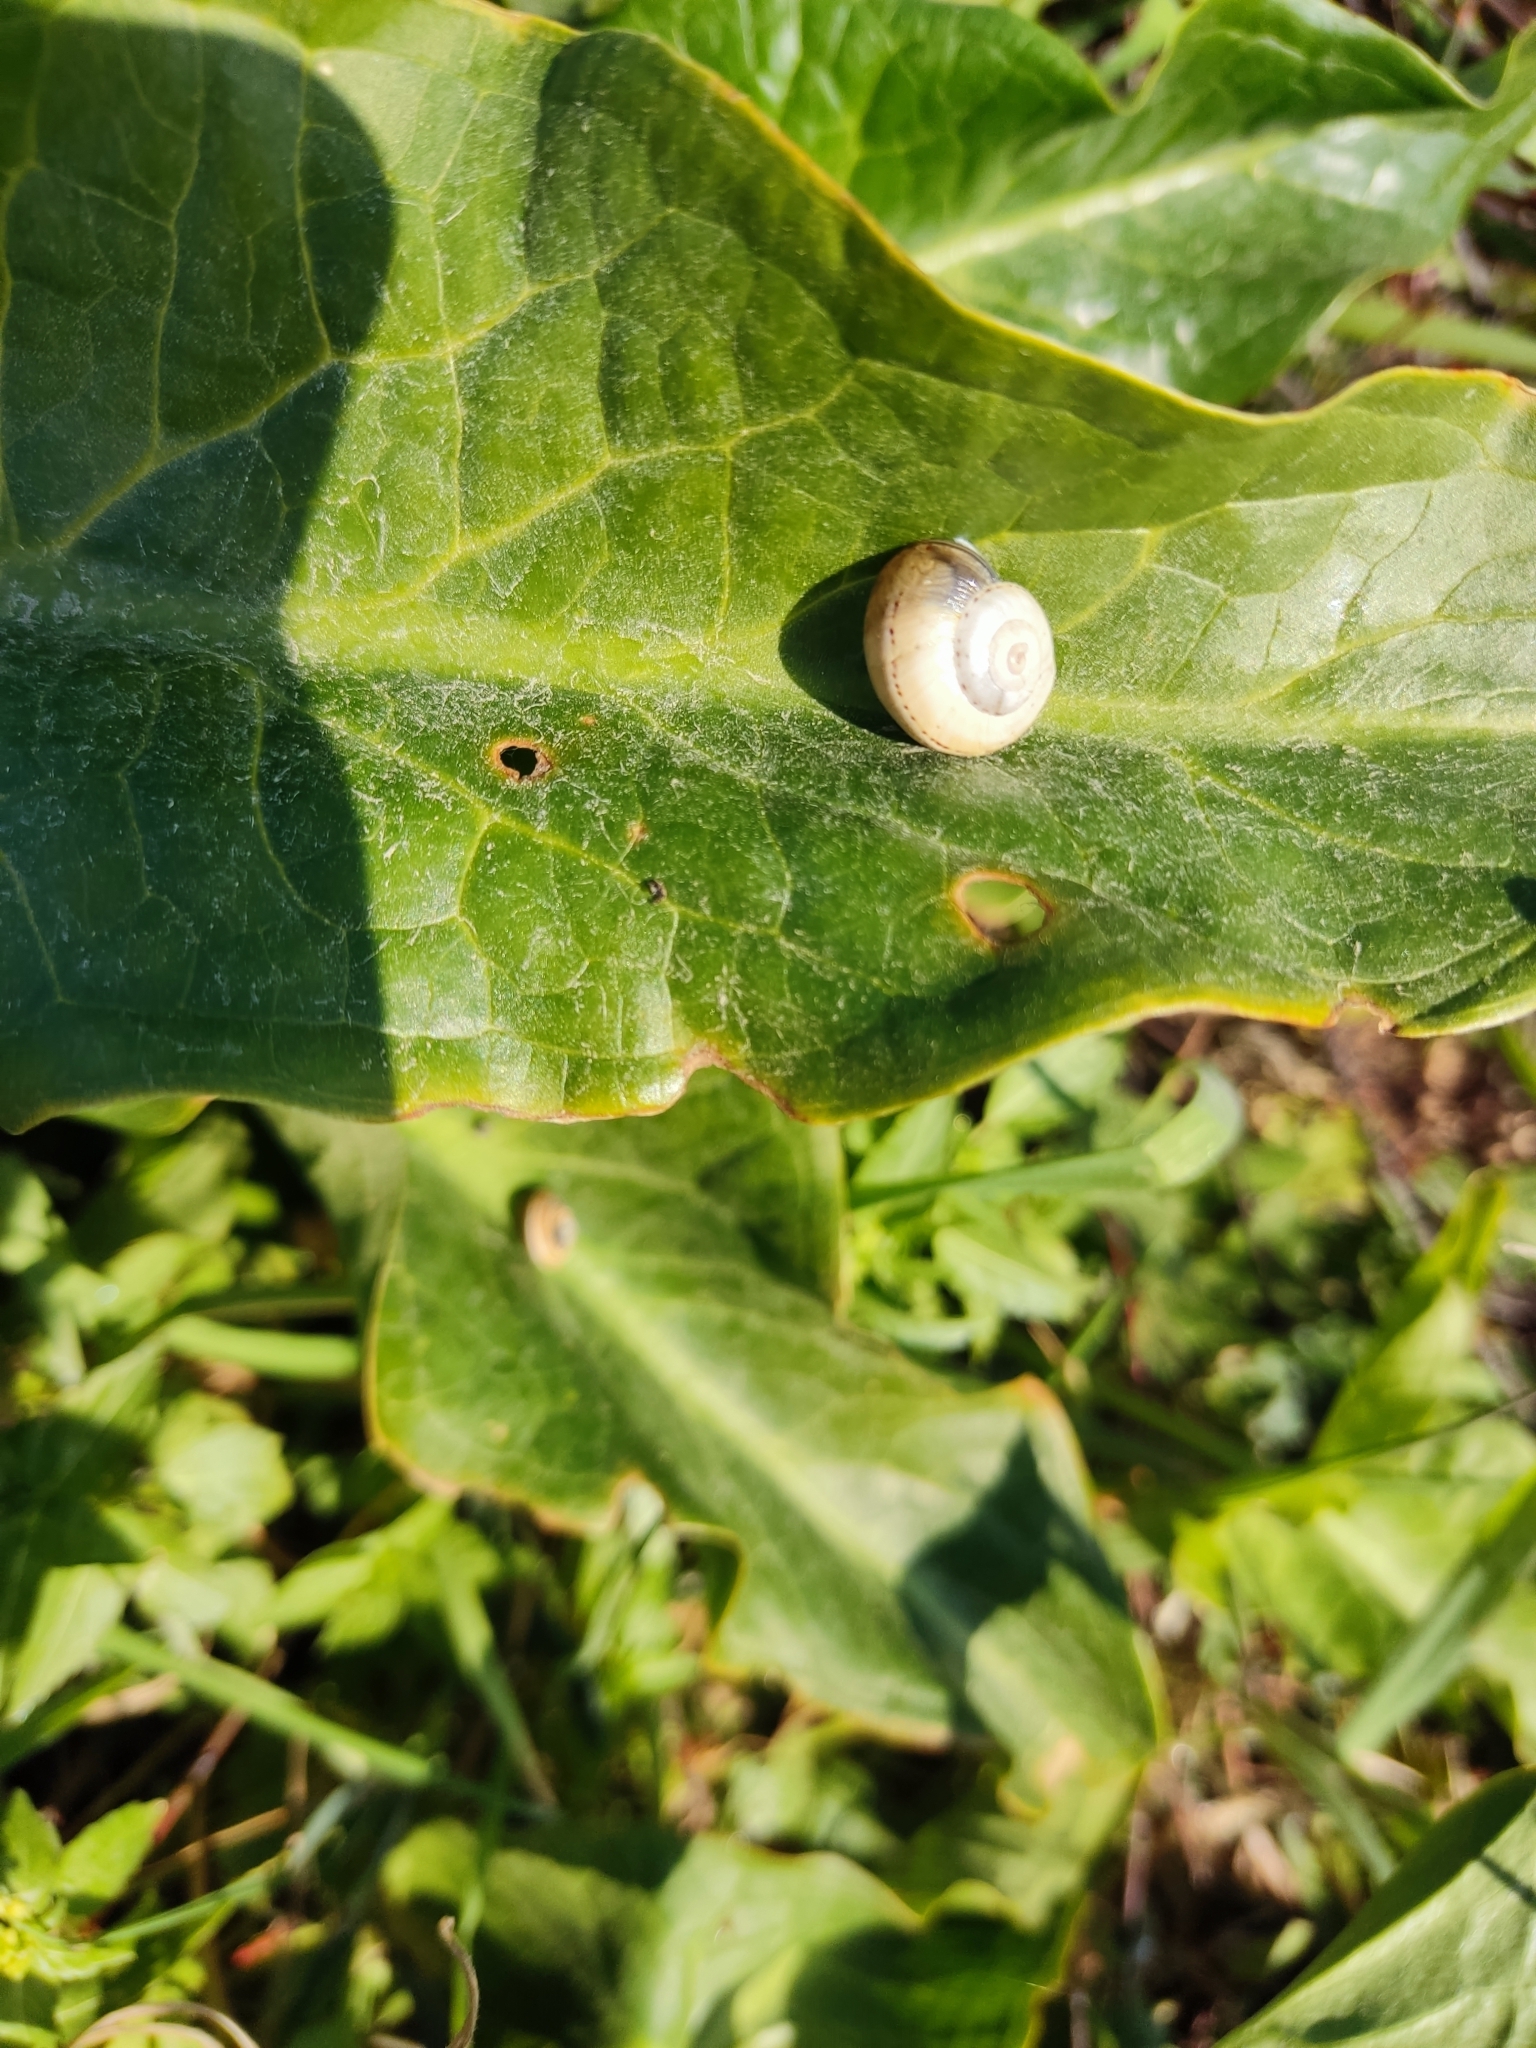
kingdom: Animalia
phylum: Mollusca
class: Gastropoda
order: Stylommatophora
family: Helicidae
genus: Theba
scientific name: Theba pisana
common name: White snail
